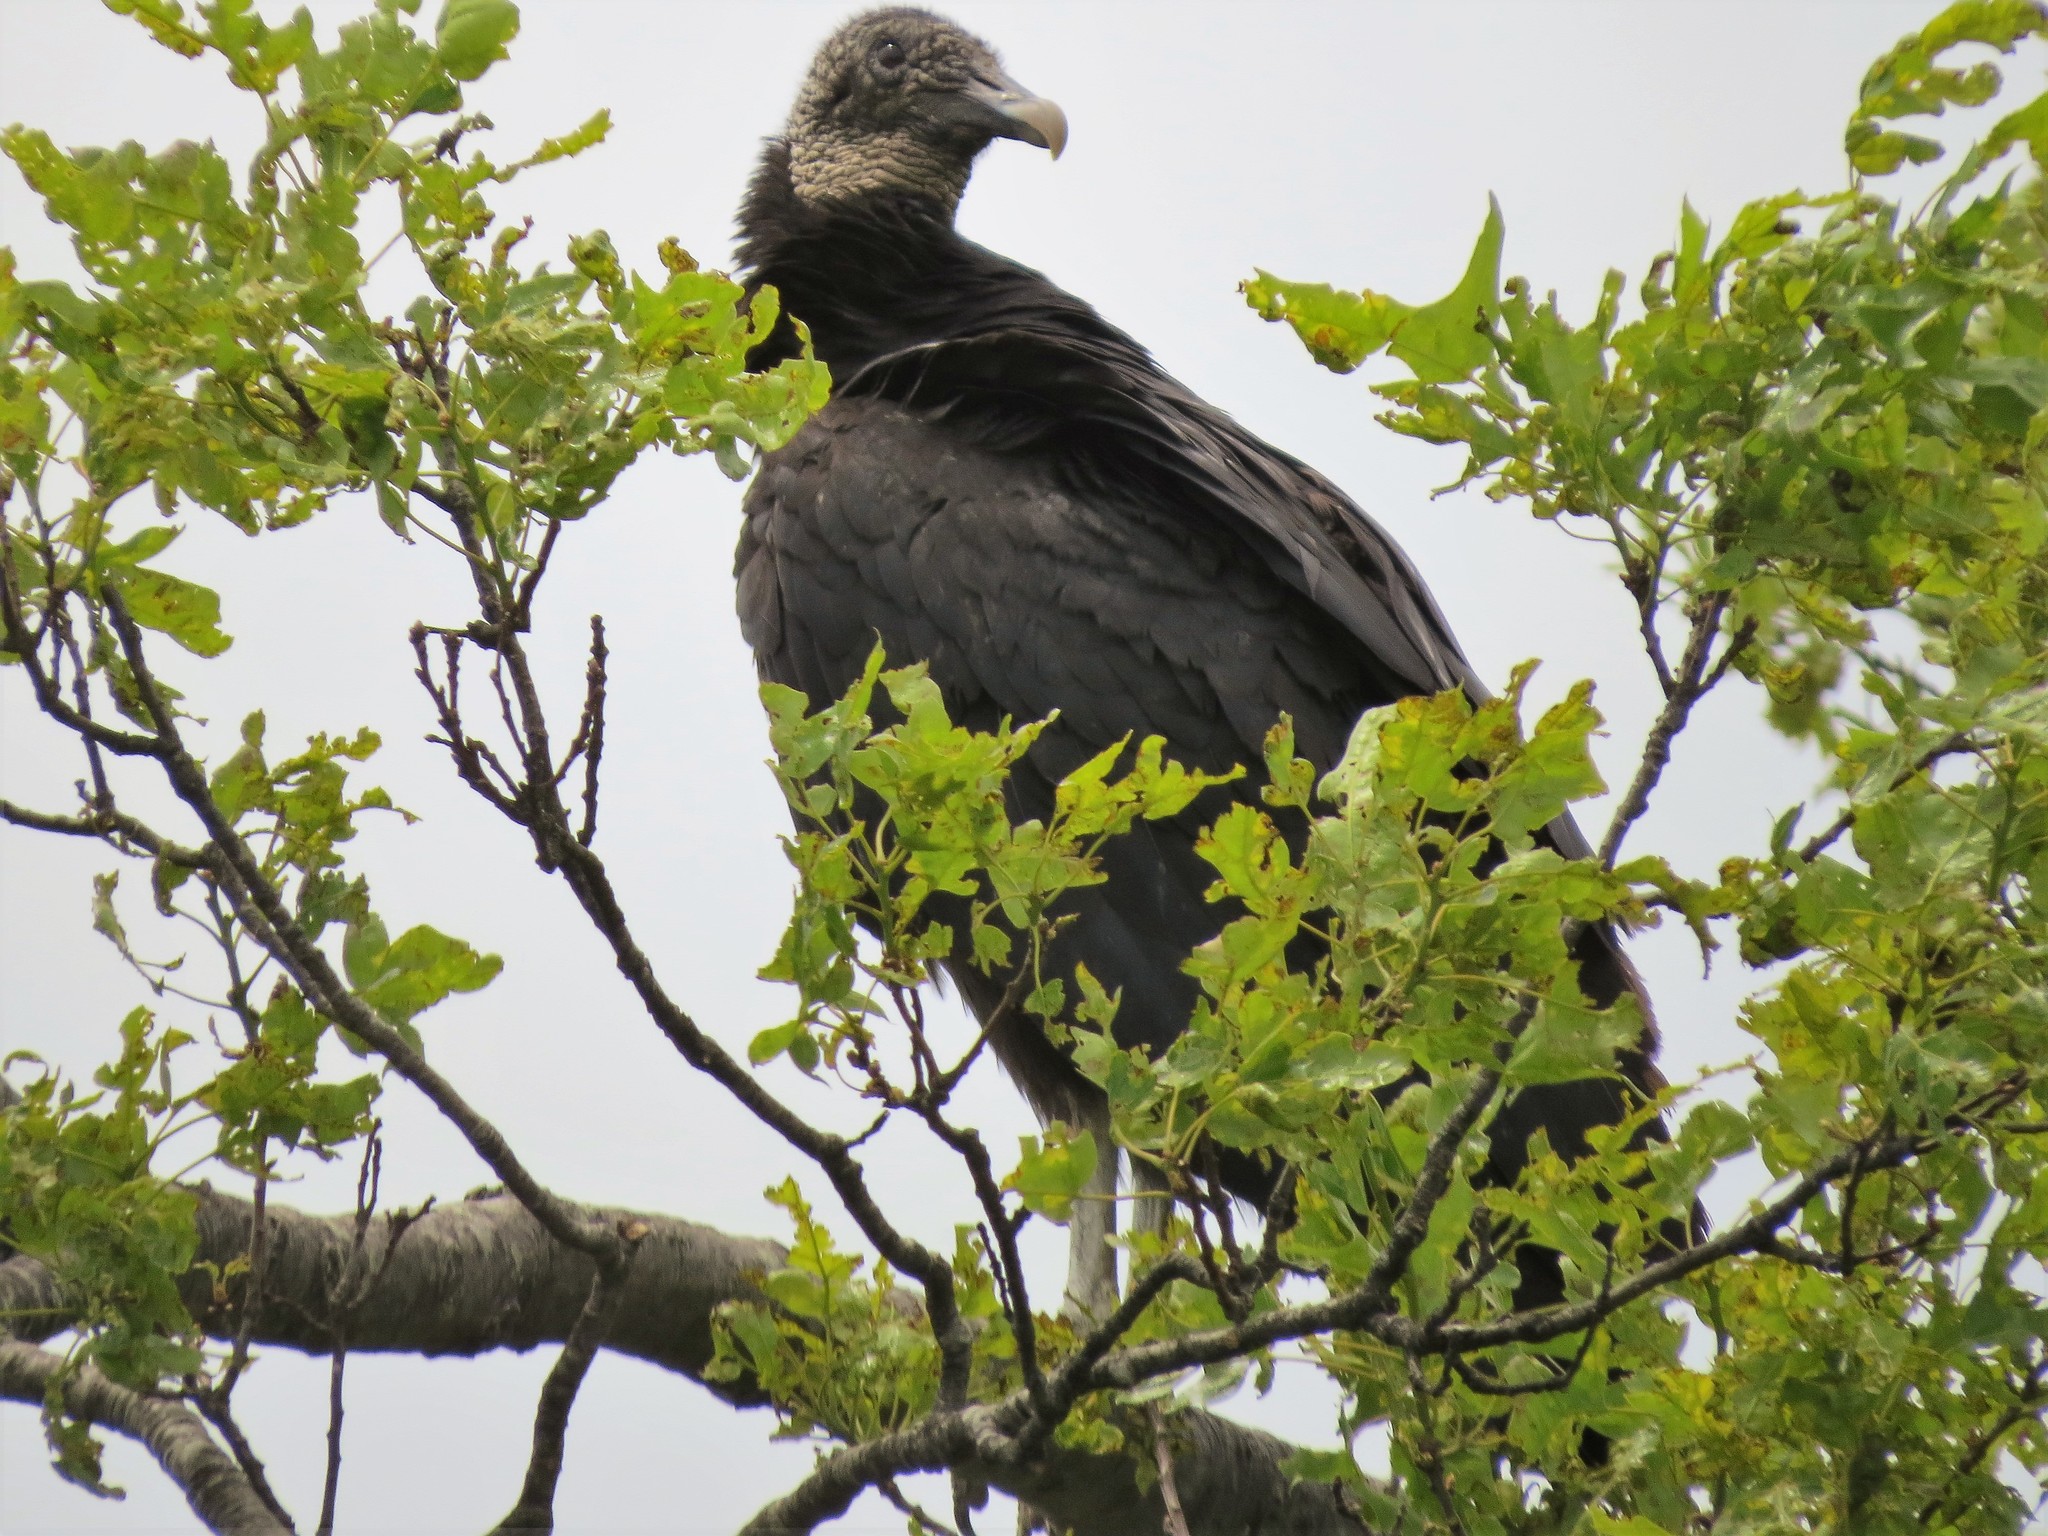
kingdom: Animalia
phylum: Chordata
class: Aves
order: Accipitriformes
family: Cathartidae
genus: Coragyps
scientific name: Coragyps atratus
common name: Black vulture
